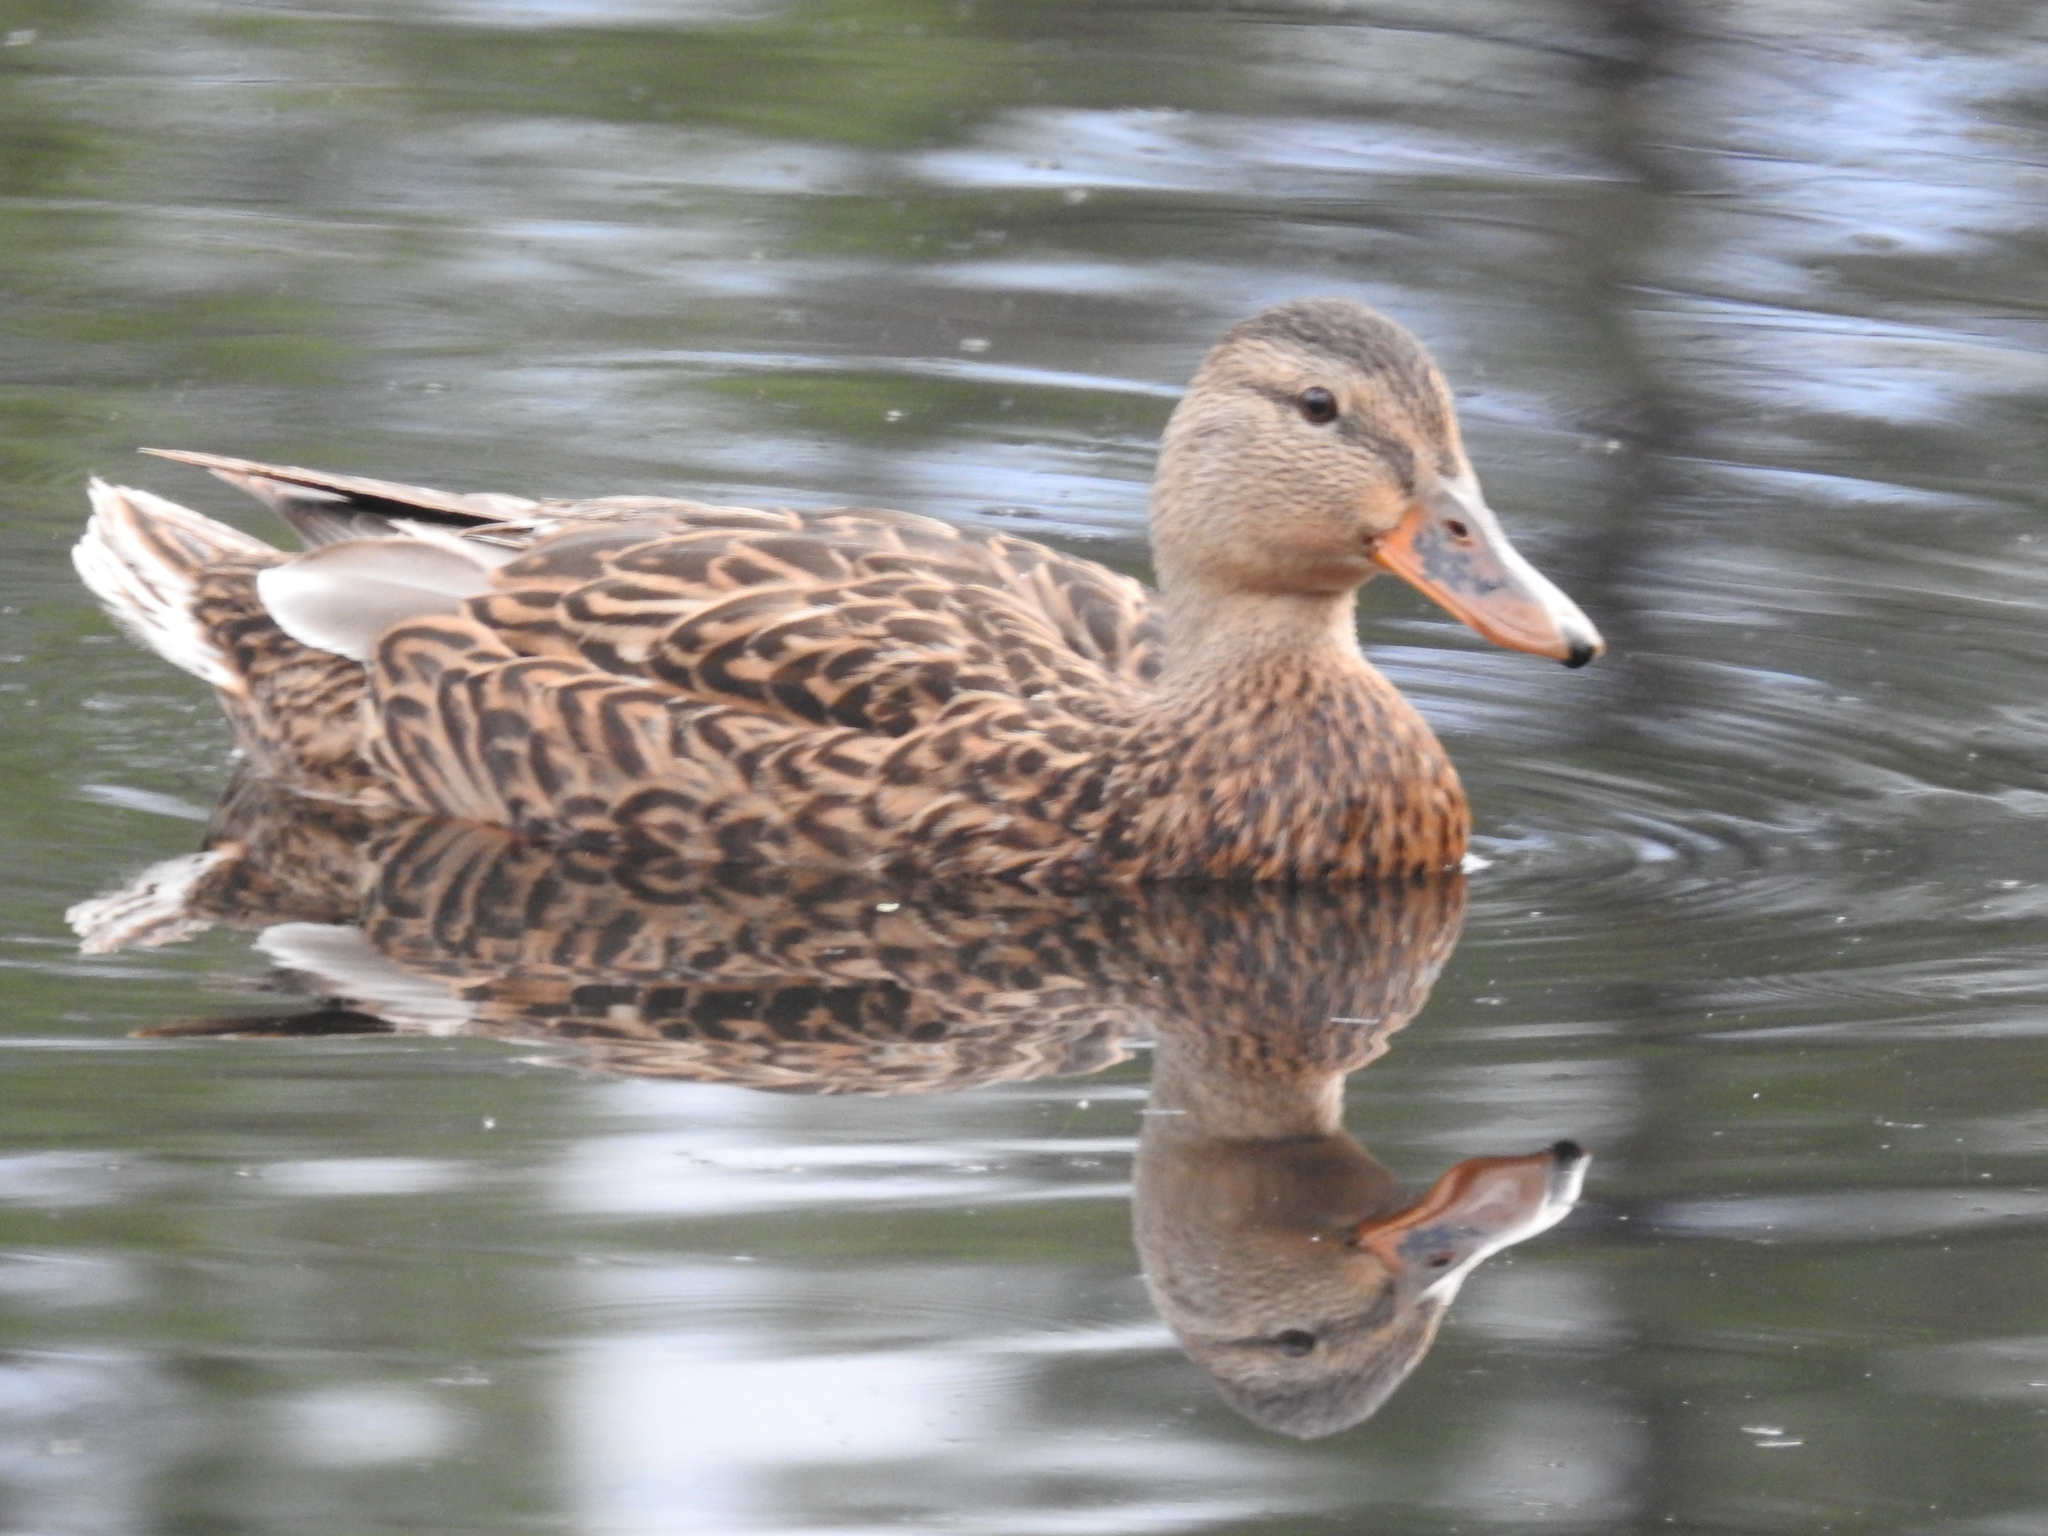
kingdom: Animalia
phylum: Chordata
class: Aves
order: Anseriformes
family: Anatidae
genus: Anas
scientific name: Anas platyrhynchos
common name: Mallard
